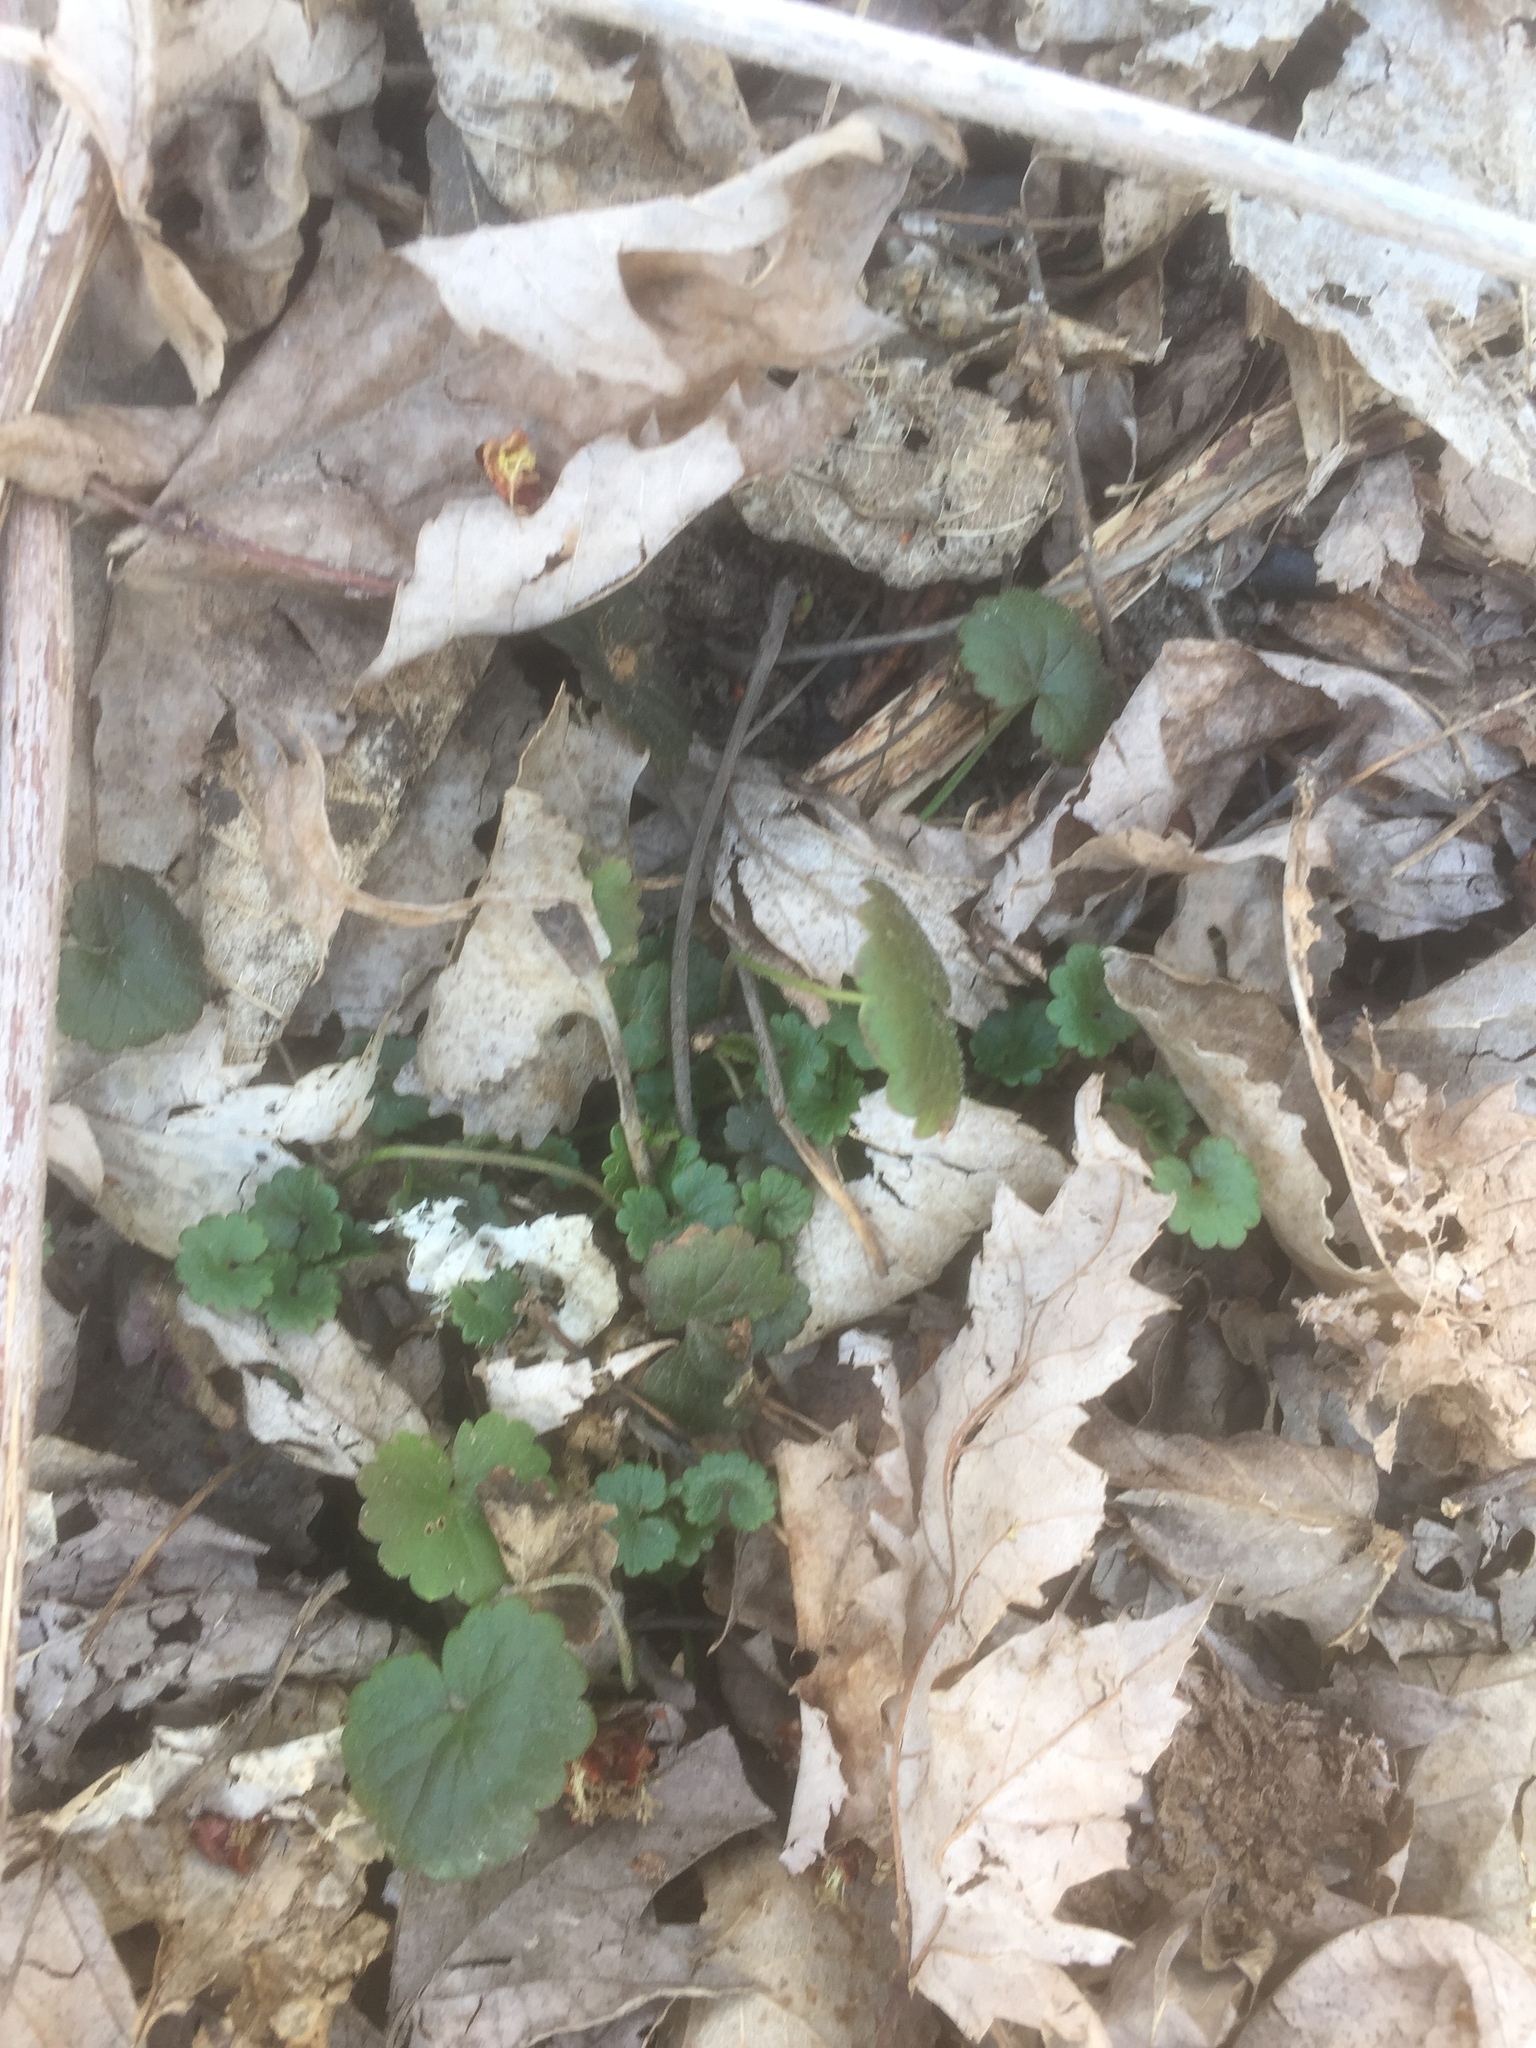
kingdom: Plantae
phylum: Tracheophyta
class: Magnoliopsida
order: Lamiales
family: Lamiaceae
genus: Glechoma
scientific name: Glechoma hederacea
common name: Ground ivy
